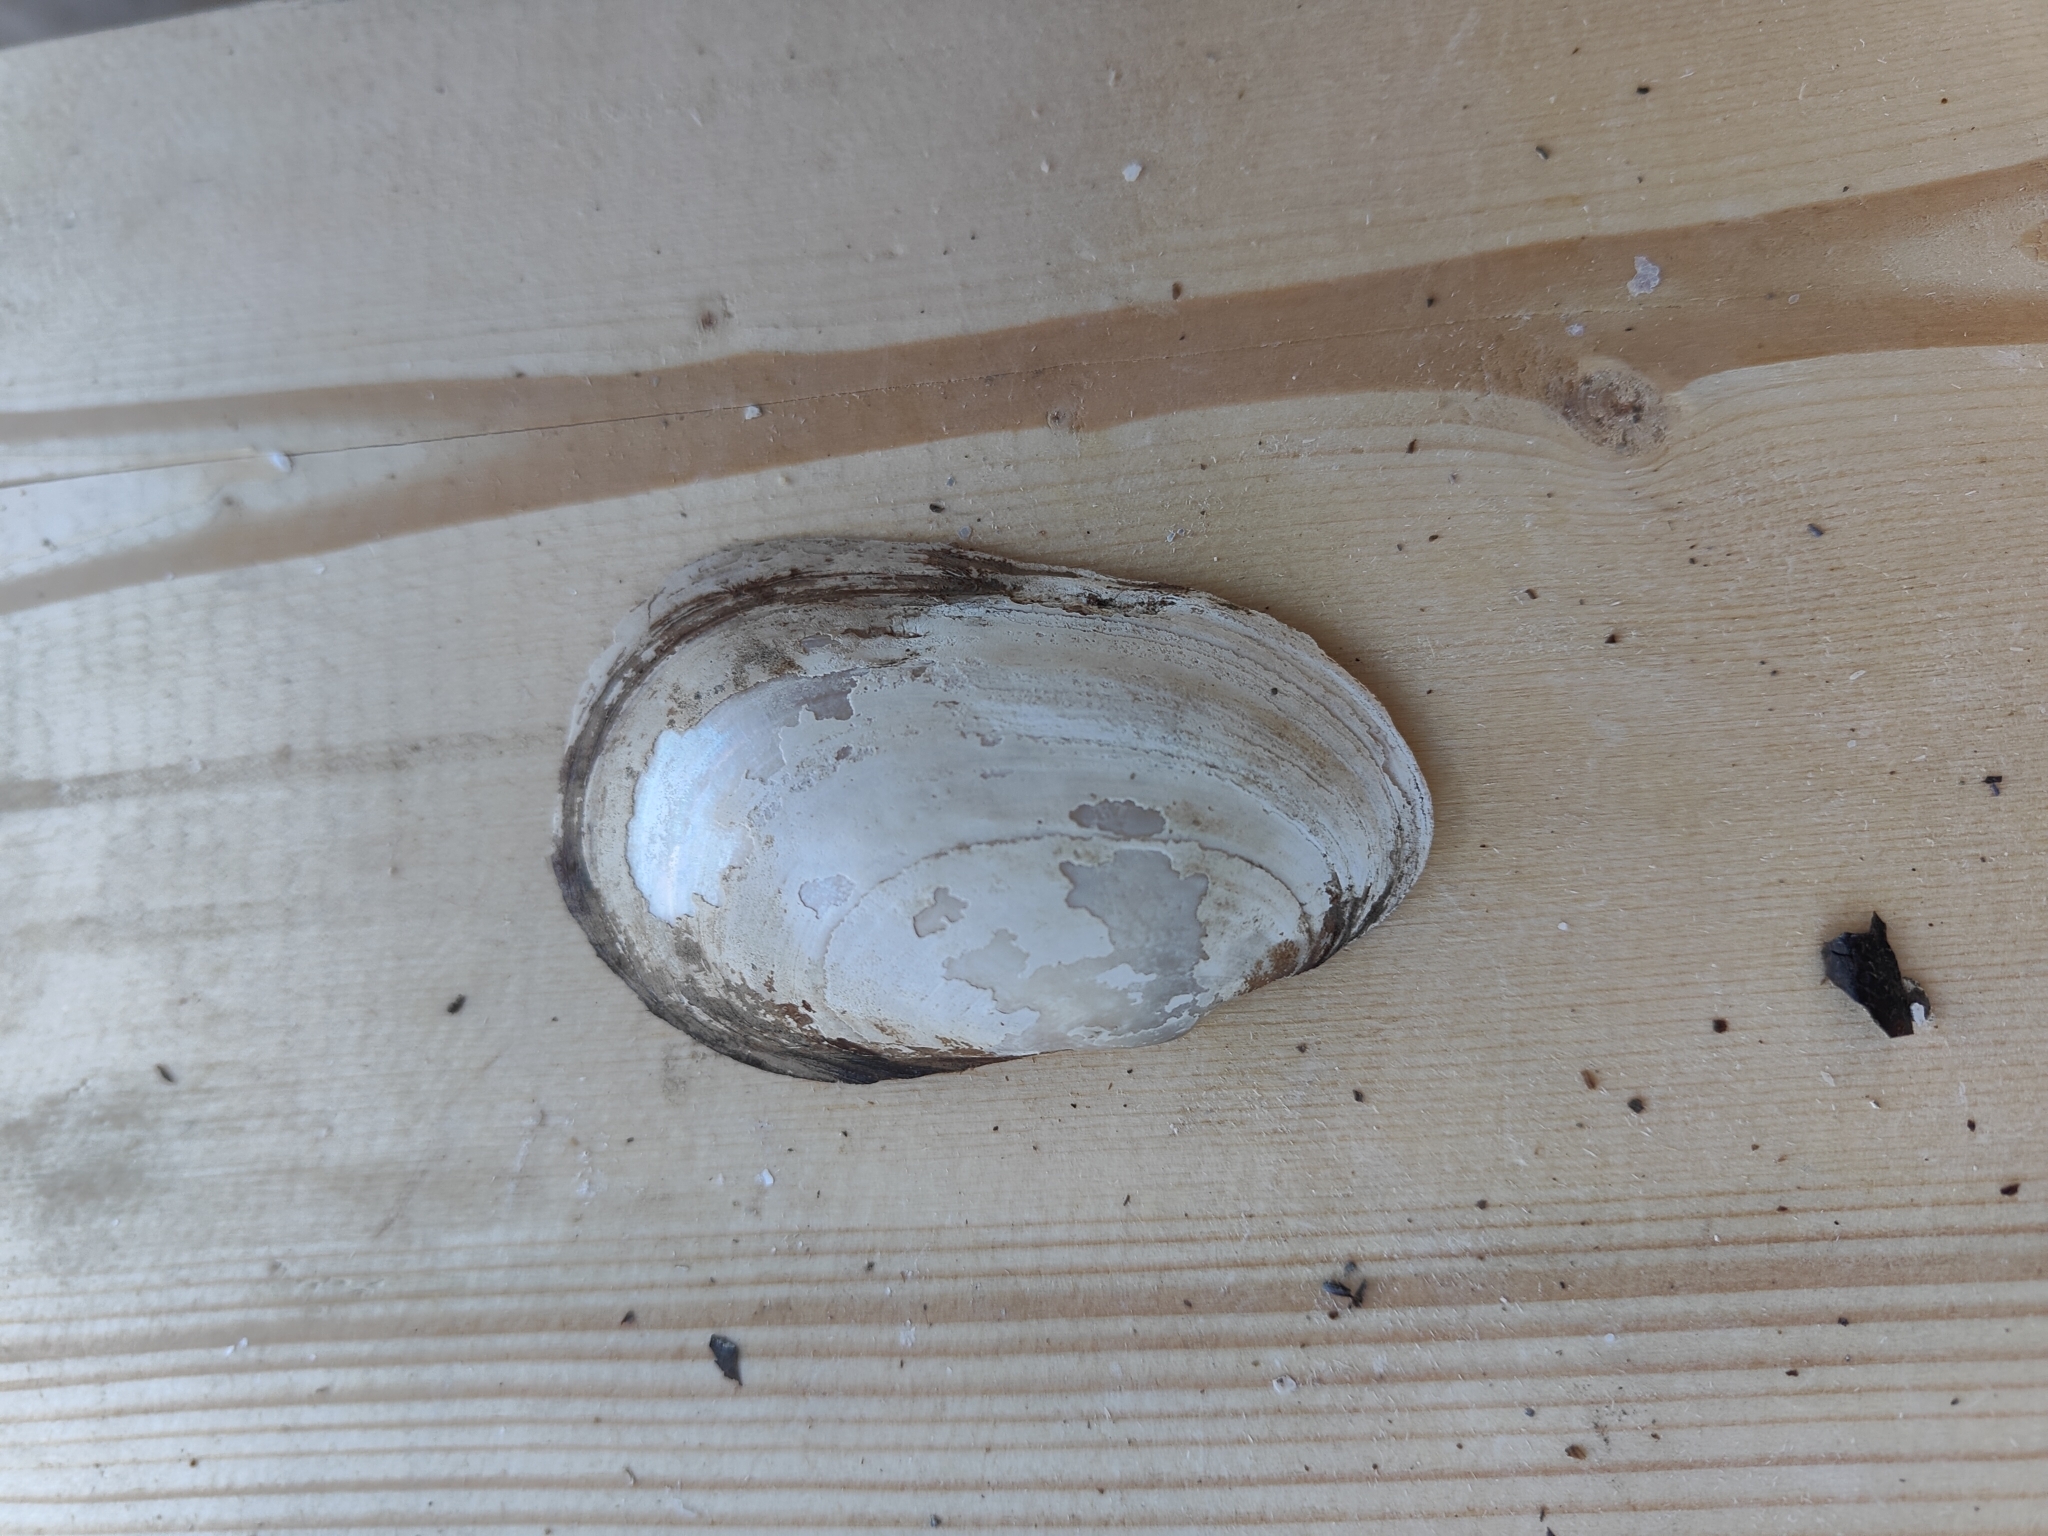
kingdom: Animalia
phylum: Mollusca
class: Bivalvia
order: Unionida
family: Unionidae
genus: Potamilus
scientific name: Potamilus fragilis
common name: Fragile papershell
